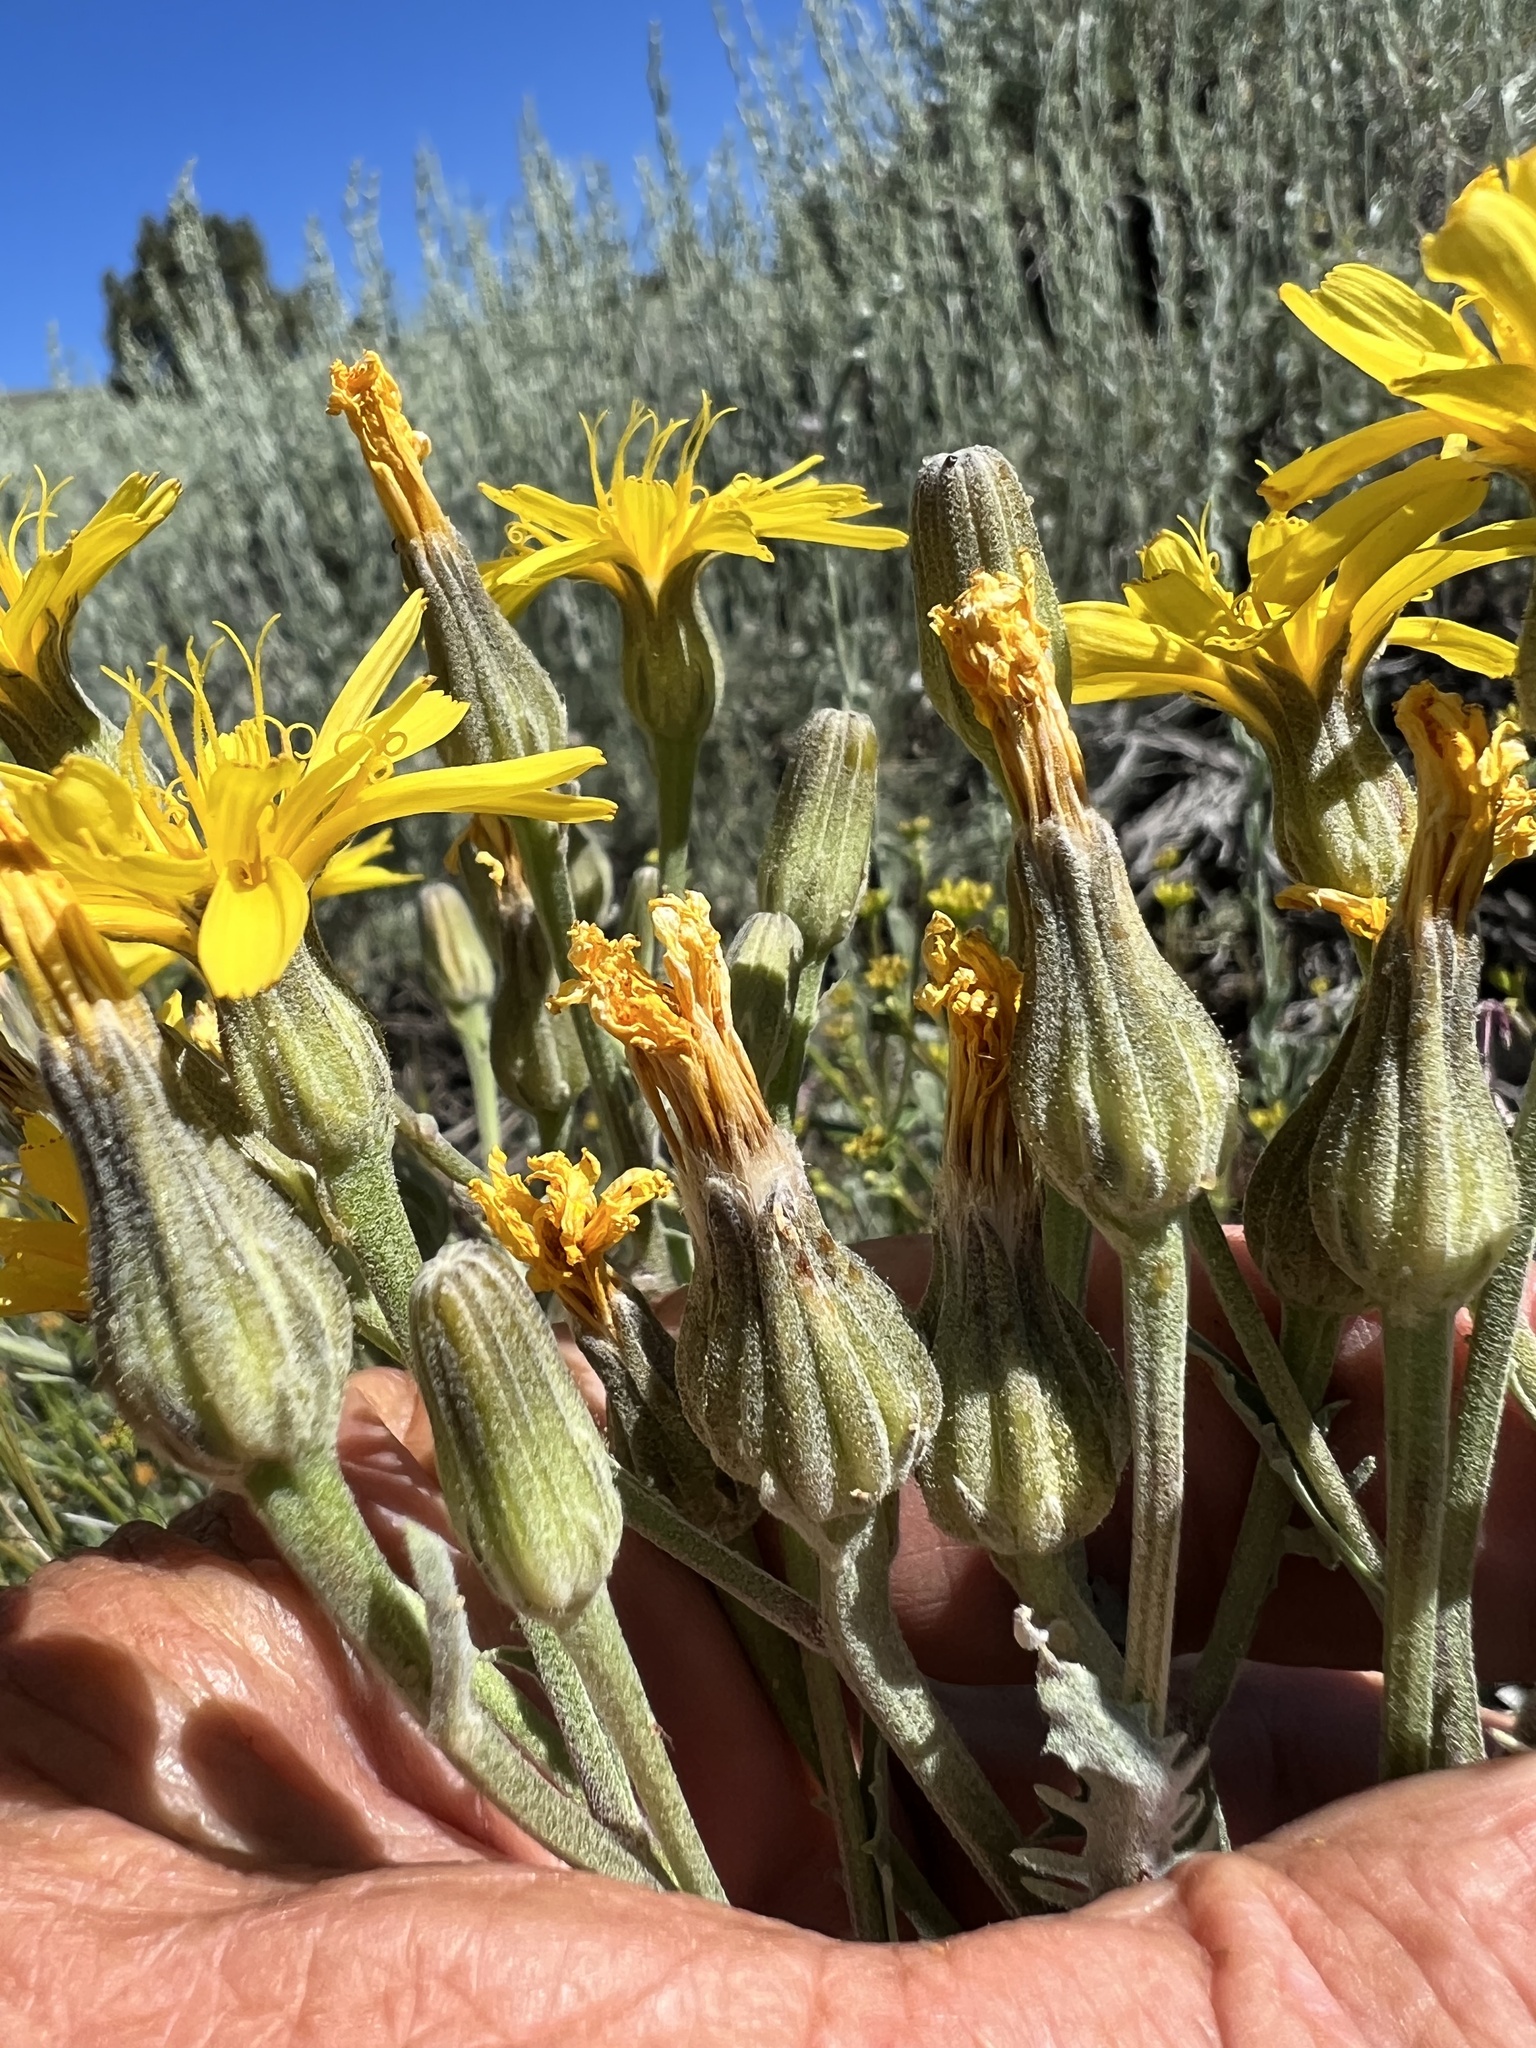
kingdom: Plantae
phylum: Tracheophyta
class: Magnoliopsida
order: Asterales
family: Asteraceae
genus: Crepis
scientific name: Crepis occidentalis
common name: Gray hawk's-beard
